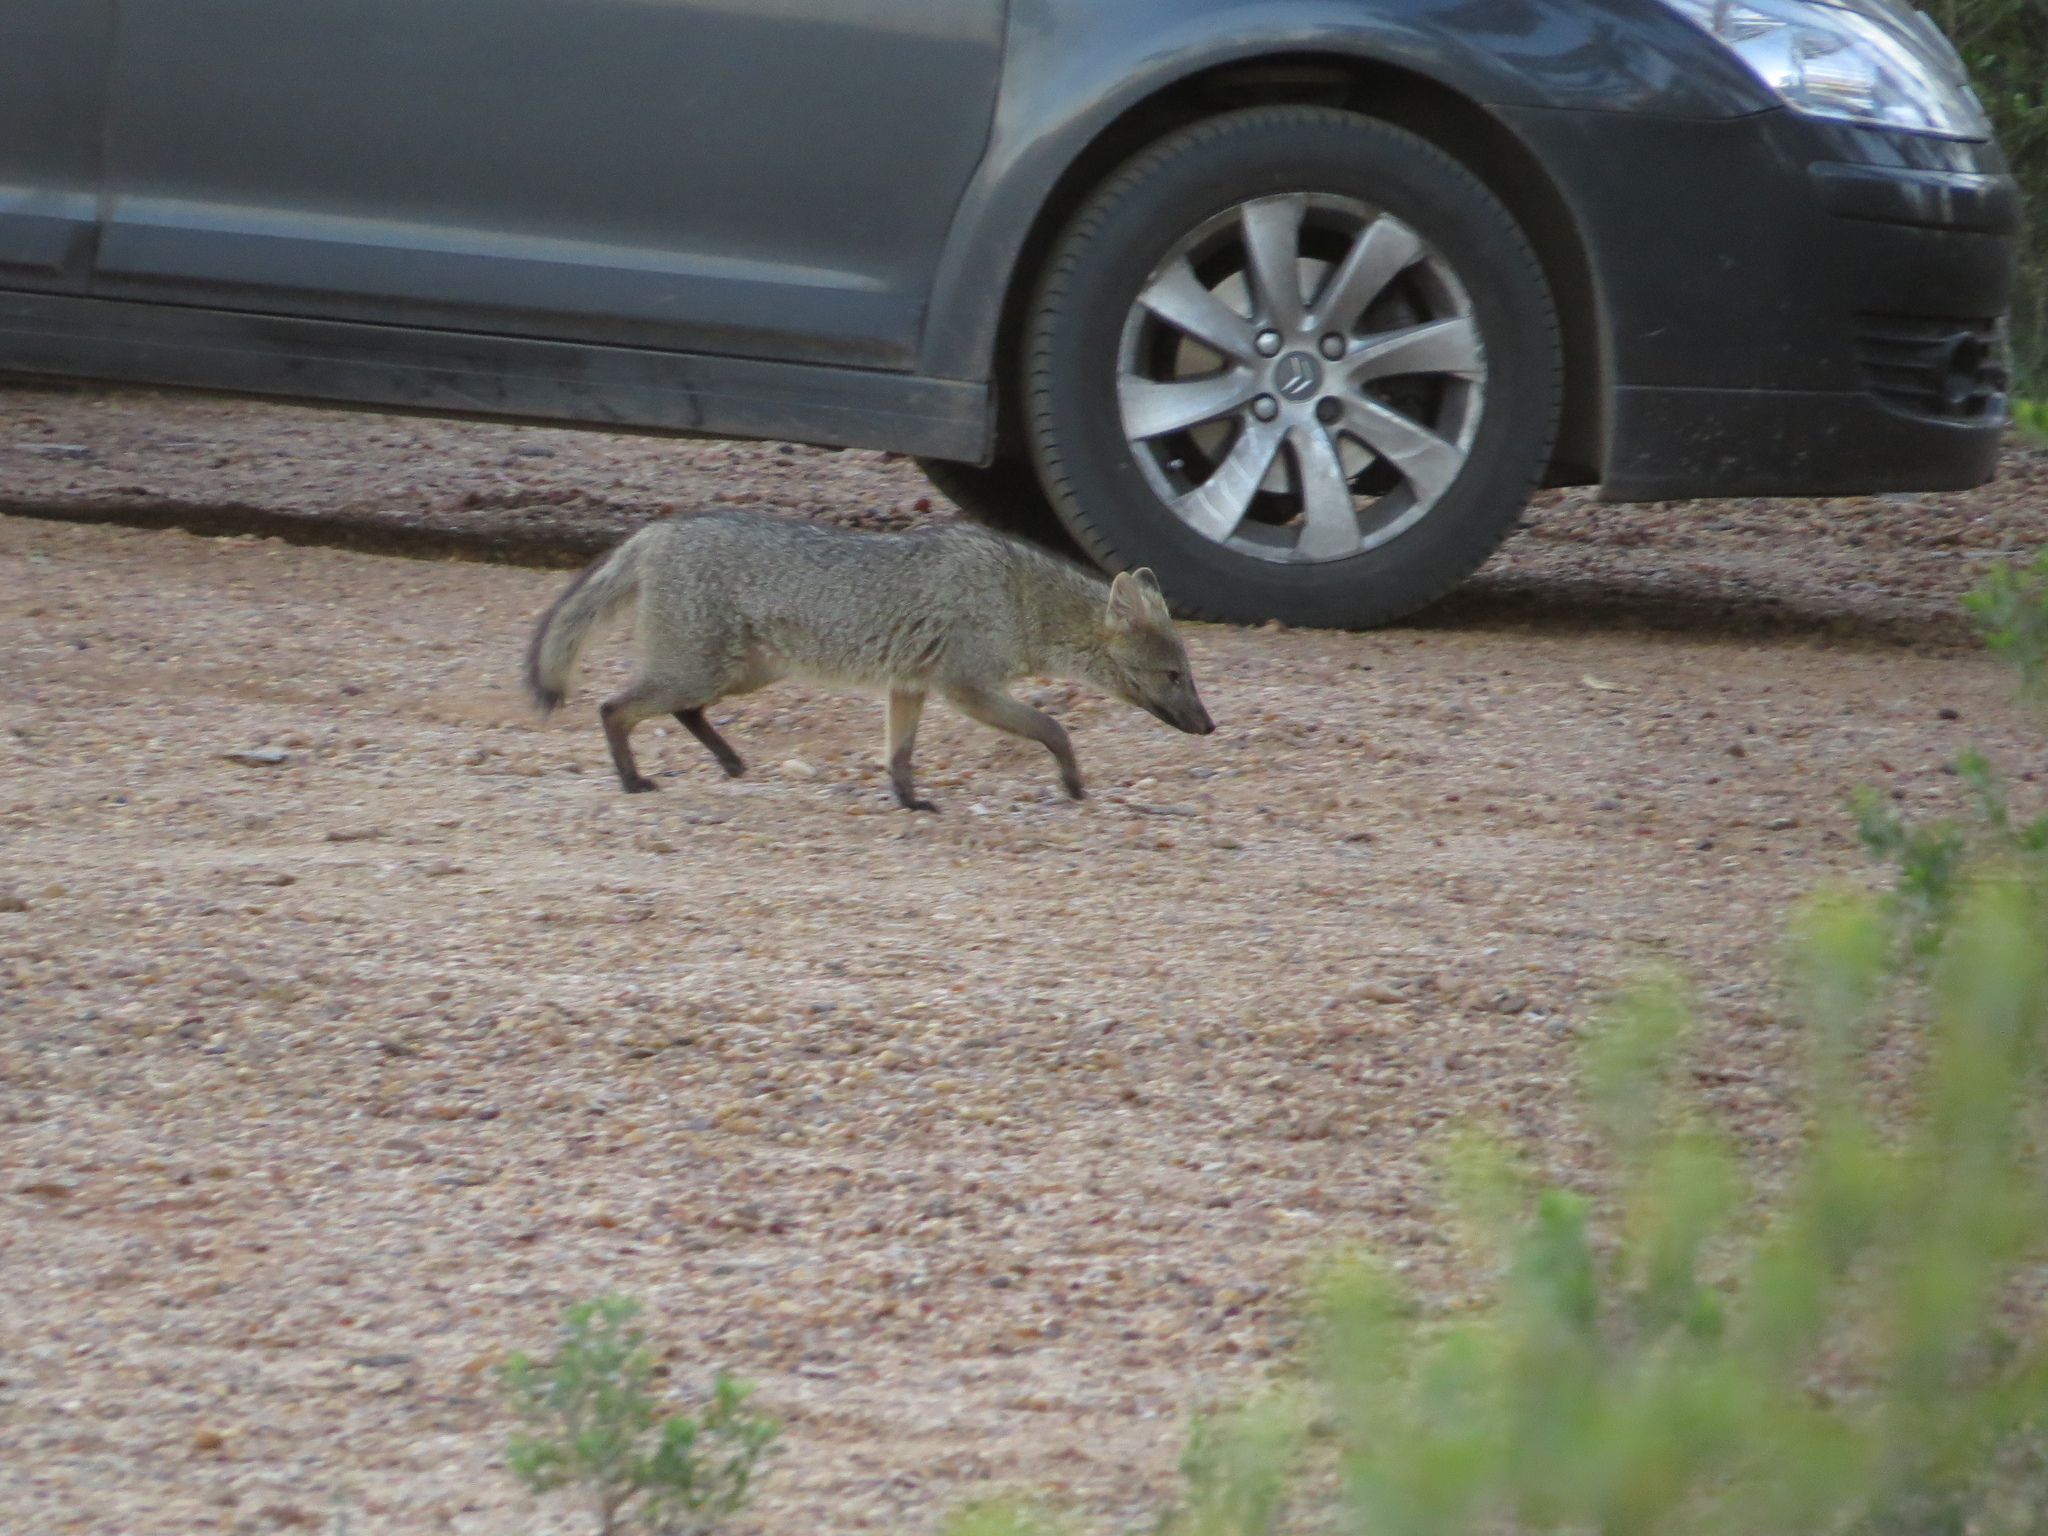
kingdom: Animalia
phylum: Chordata
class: Mammalia
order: Carnivora
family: Canidae
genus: Cerdocyon
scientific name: Cerdocyon thous
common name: Crab-eating fox
